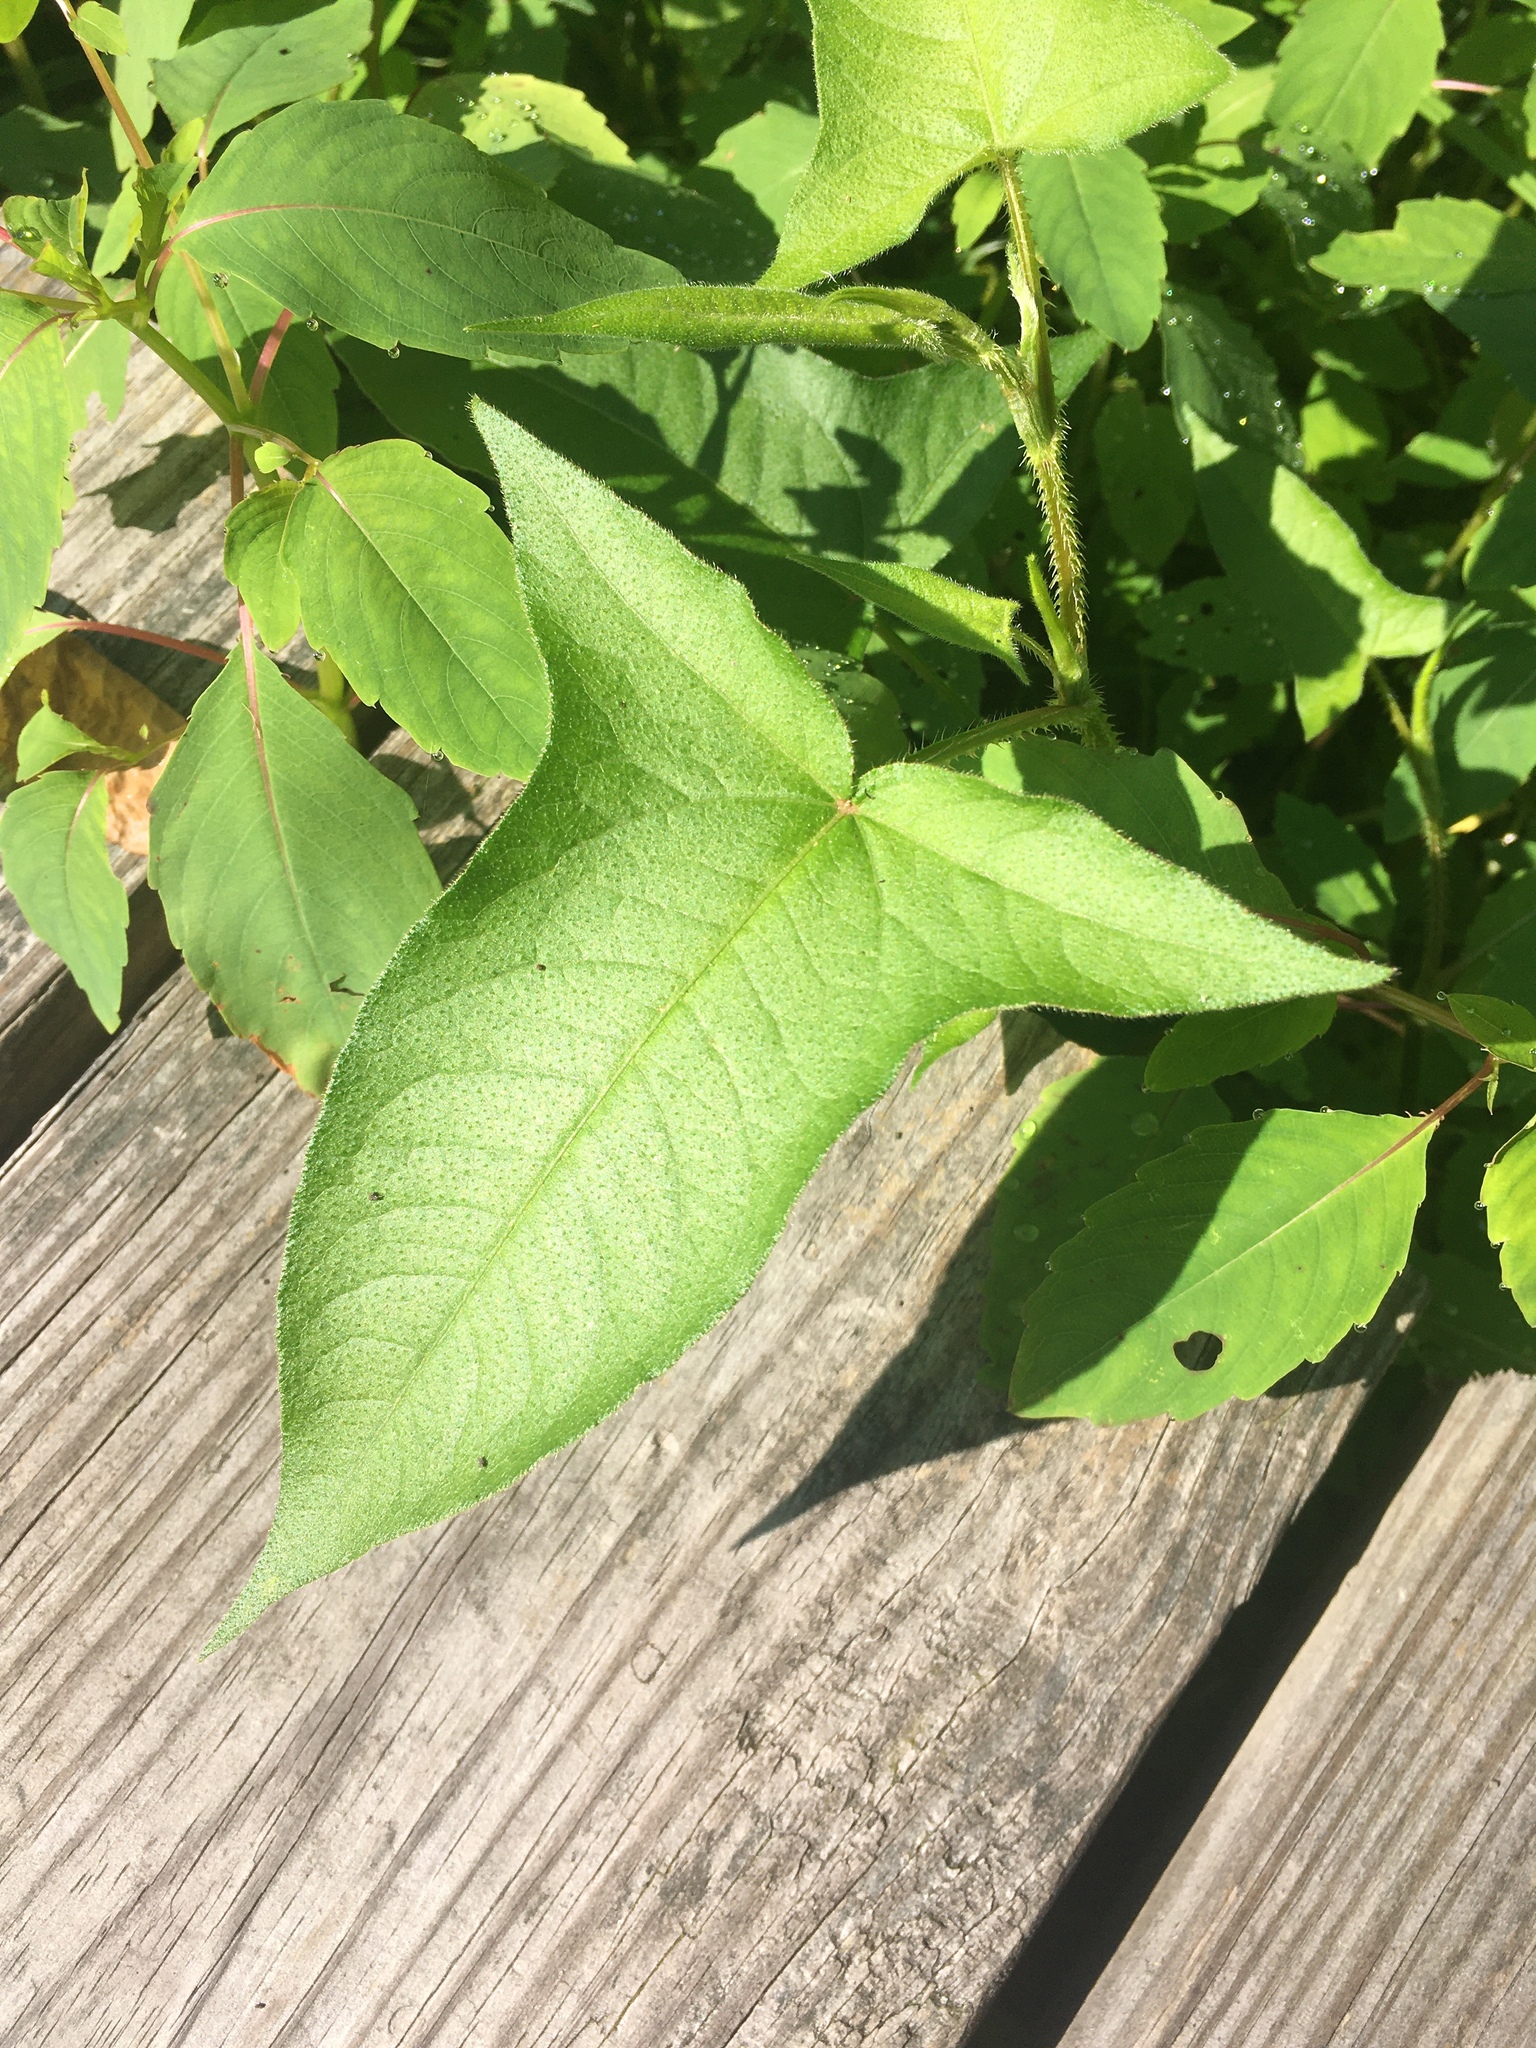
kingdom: Plantae
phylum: Tracheophyta
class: Magnoliopsida
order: Caryophyllales
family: Polygonaceae
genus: Persicaria
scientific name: Persicaria arifolia
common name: Halberd-leaved tear-thumb
